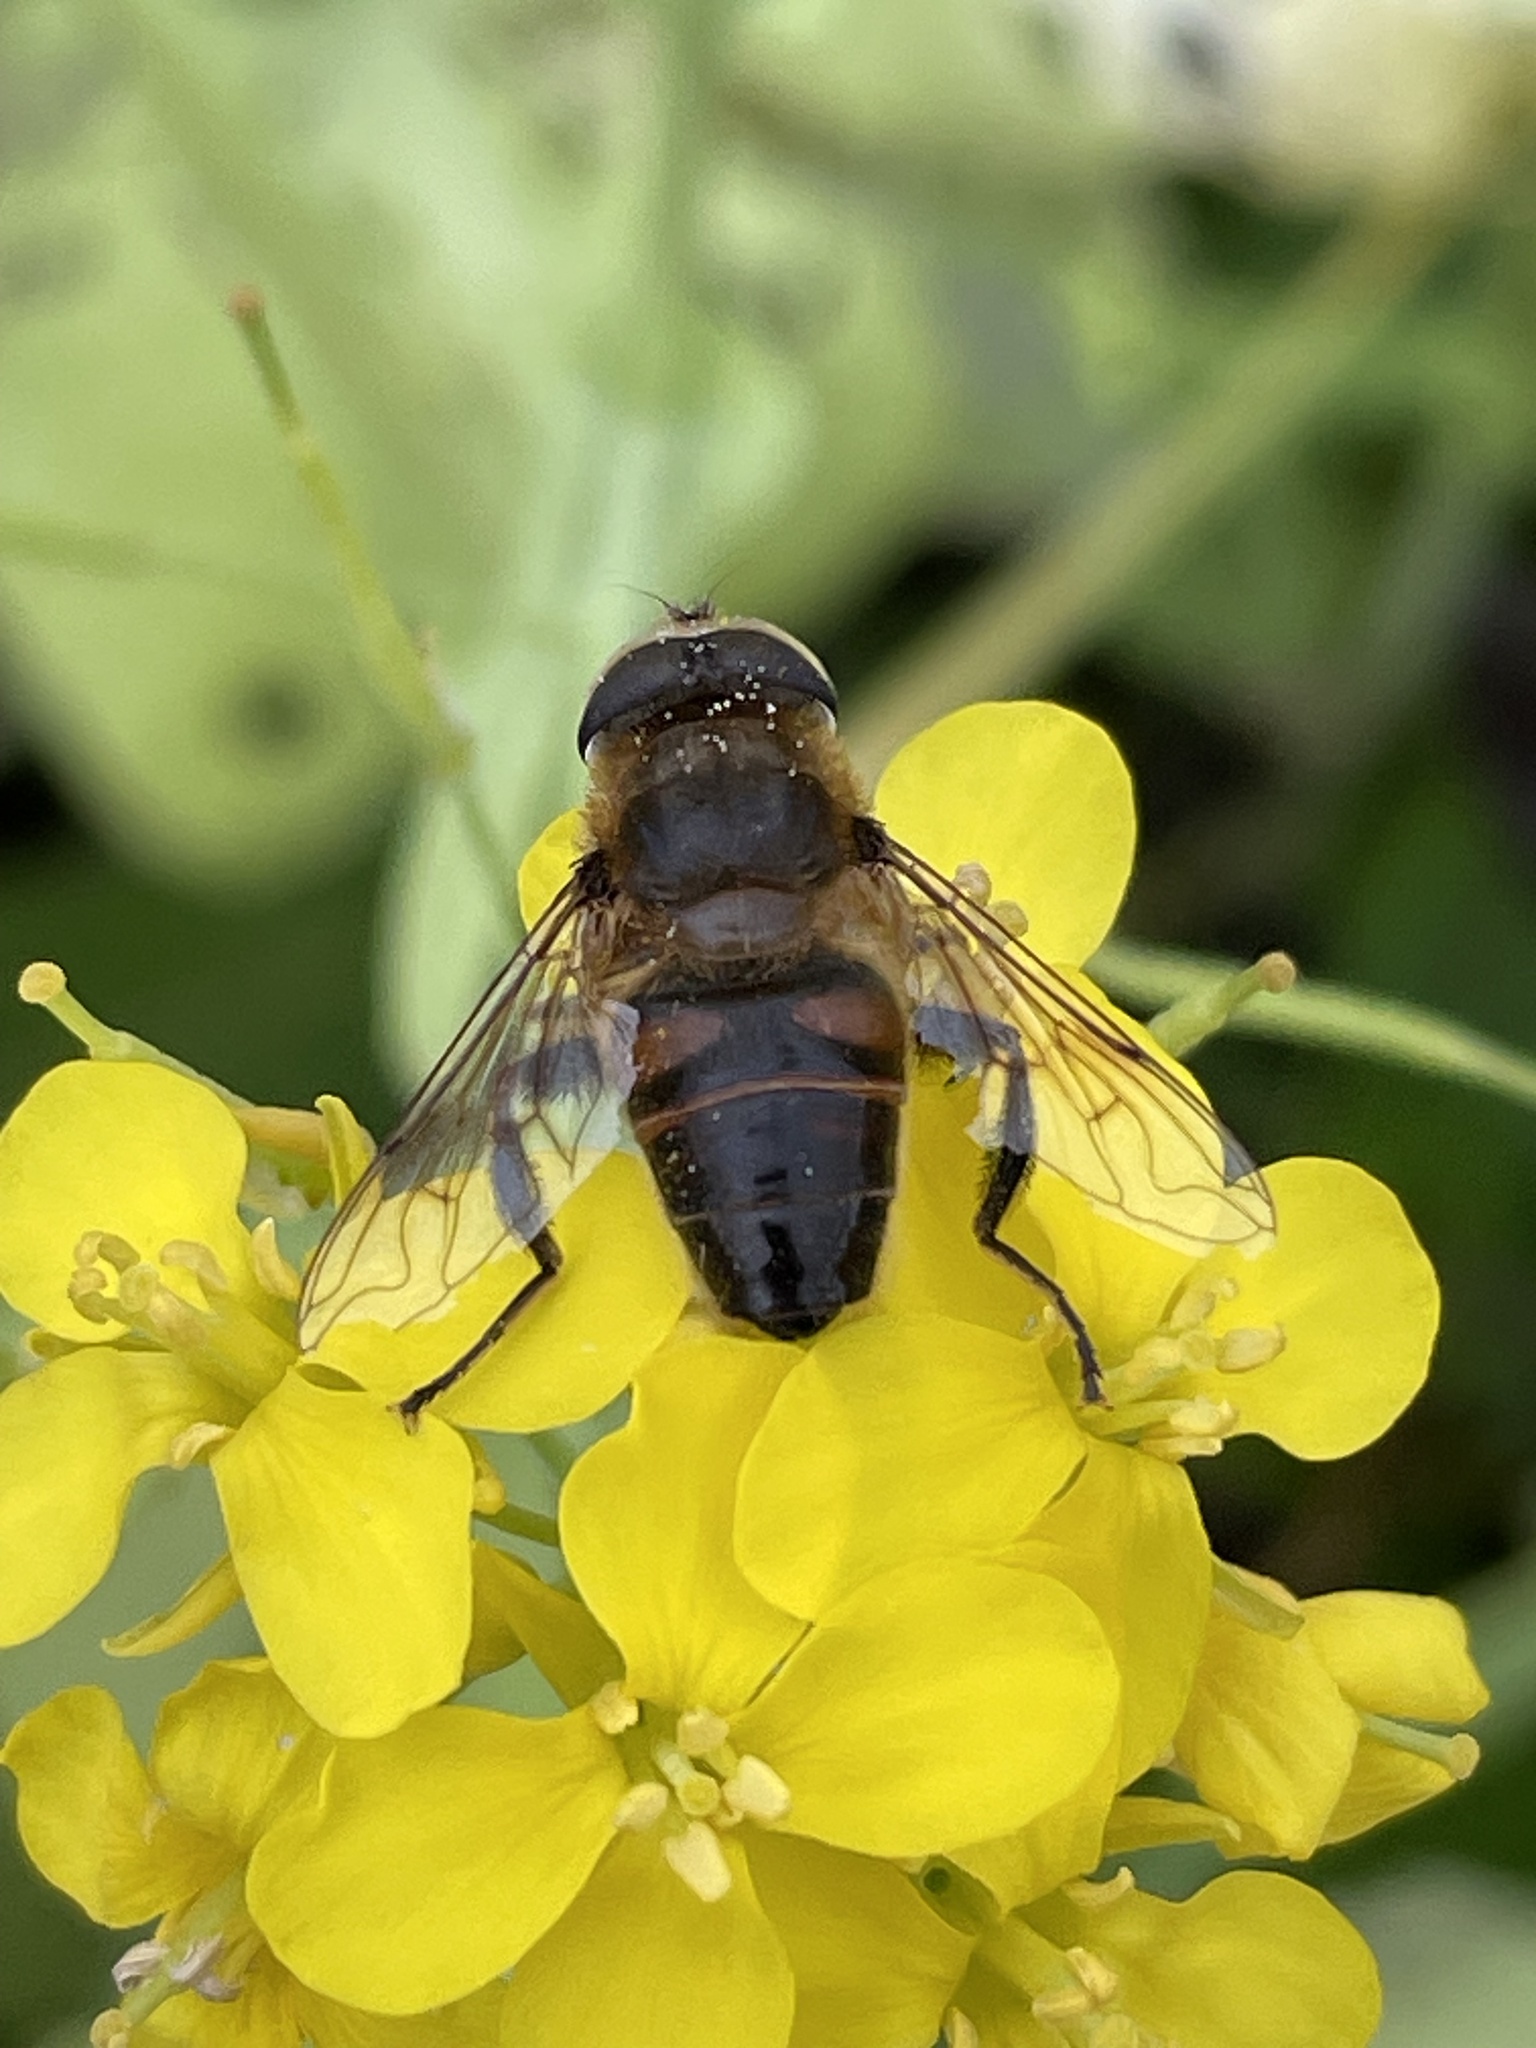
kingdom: Animalia
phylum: Arthropoda
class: Insecta
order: Diptera
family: Syrphidae
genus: Eristalis
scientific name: Eristalis tenax
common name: Drone fly
